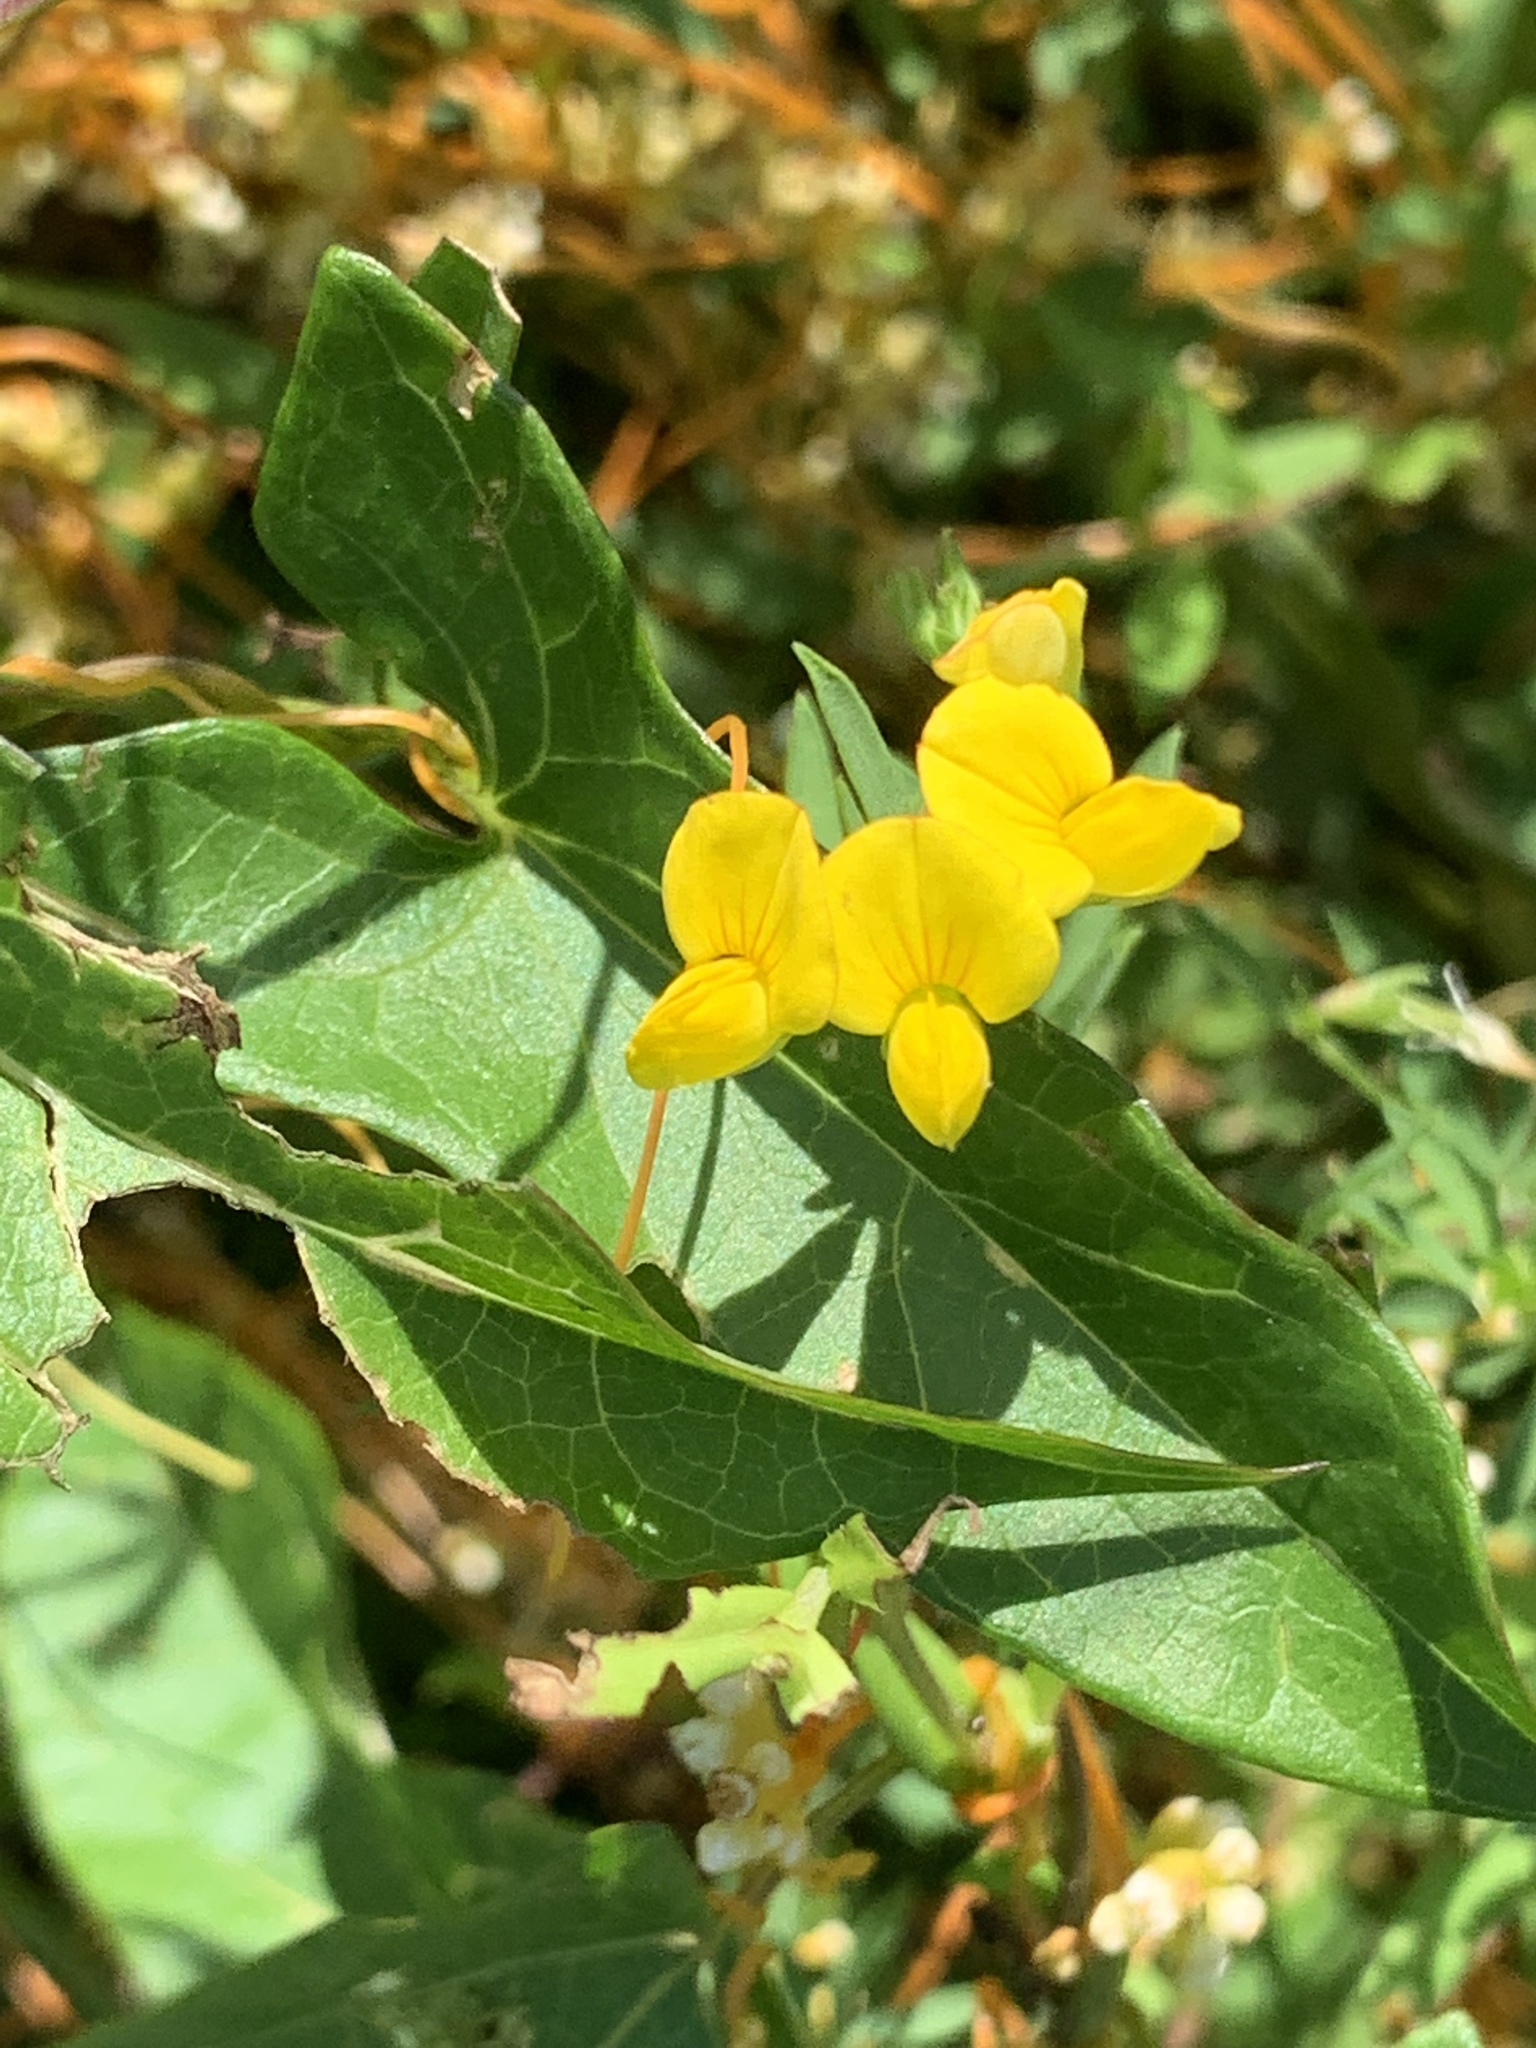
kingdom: Plantae
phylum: Tracheophyta
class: Magnoliopsida
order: Fabales
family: Fabaceae
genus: Lotus
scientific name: Lotus corniculatus
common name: Common bird's-foot-trefoil
